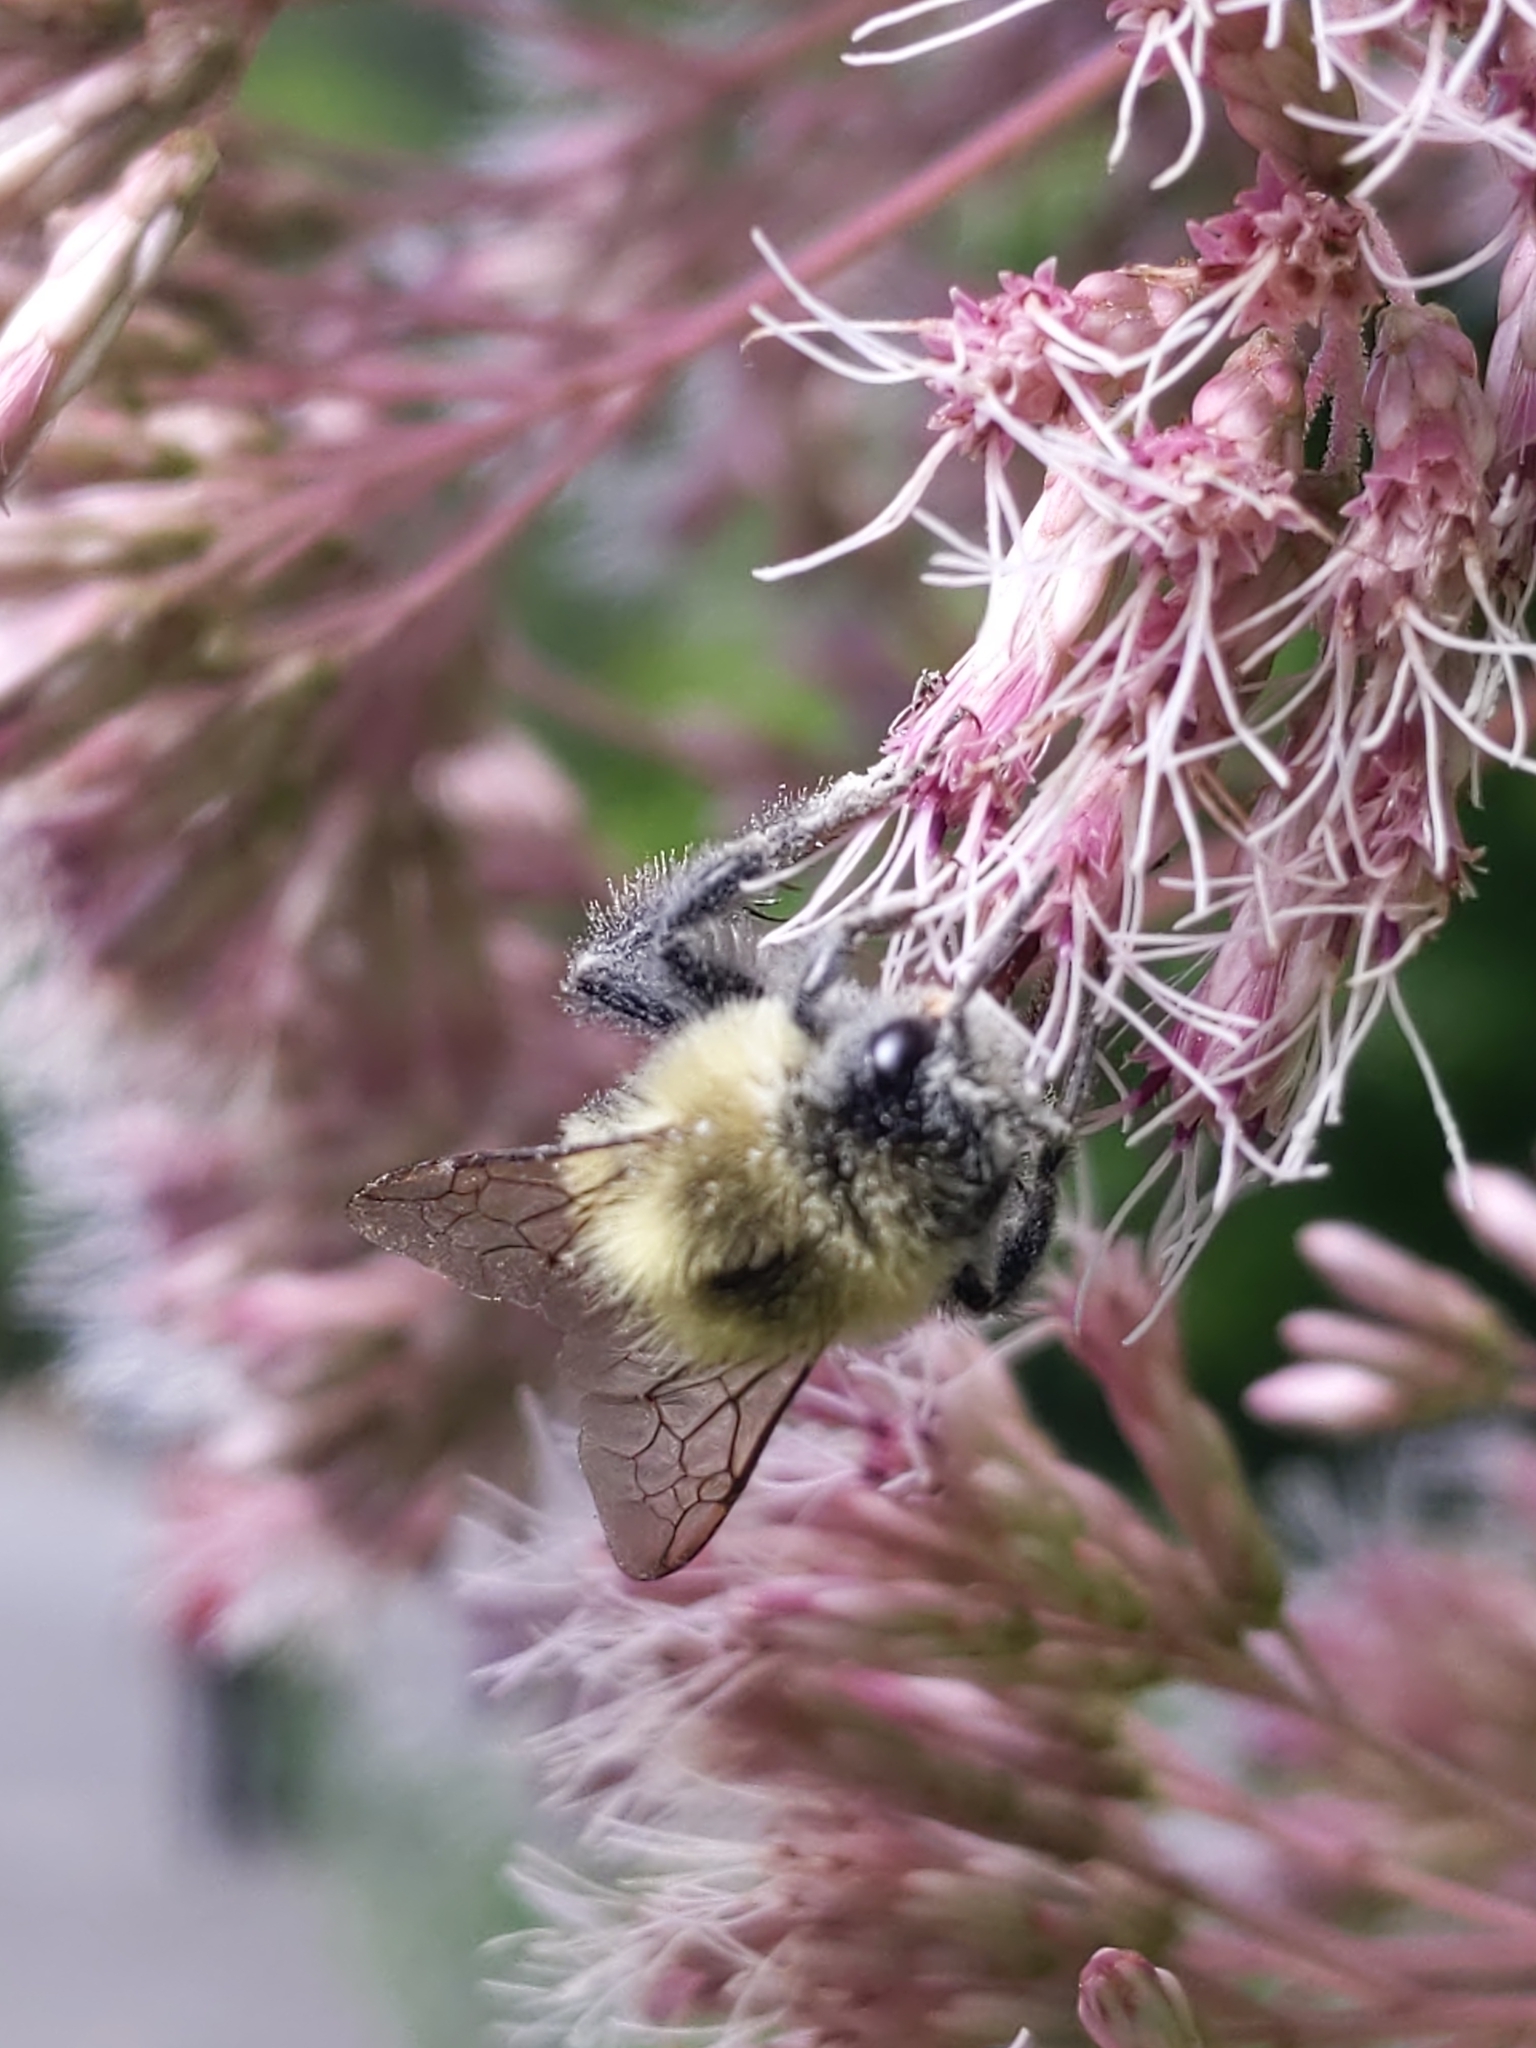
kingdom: Animalia
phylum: Arthropoda
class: Insecta
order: Hymenoptera
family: Apidae
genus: Bombus
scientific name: Bombus impatiens
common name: Common eastern bumble bee
